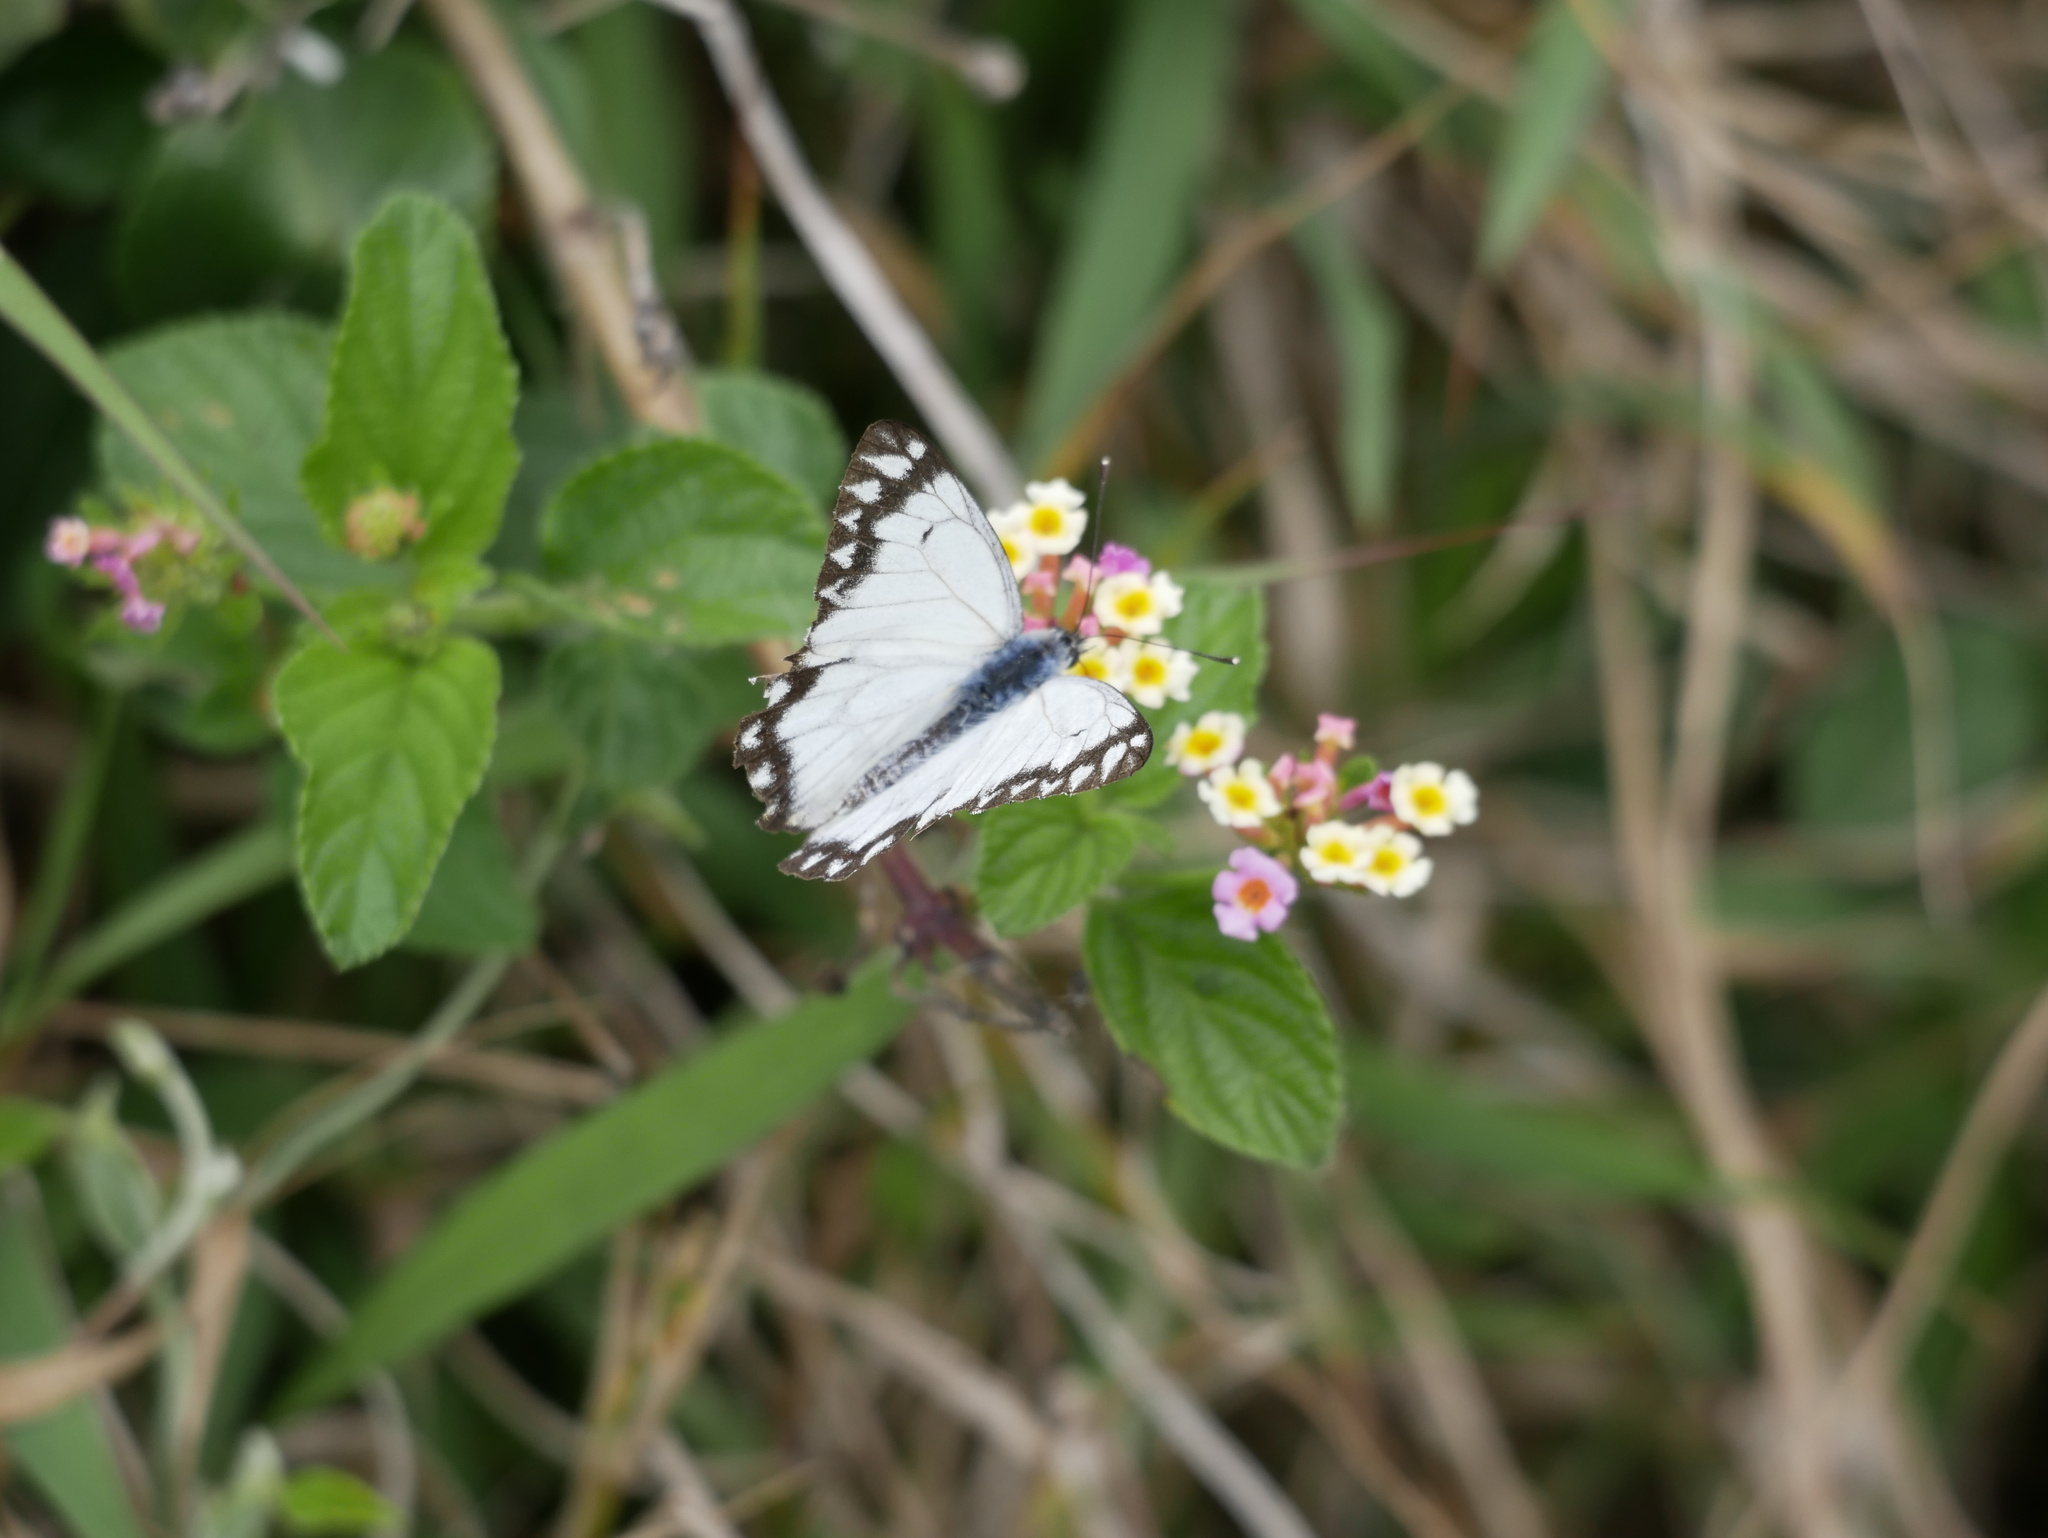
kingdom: Animalia
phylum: Arthropoda
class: Insecta
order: Lepidoptera
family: Pieridae
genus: Belenois
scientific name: Belenois java
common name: Caper white
